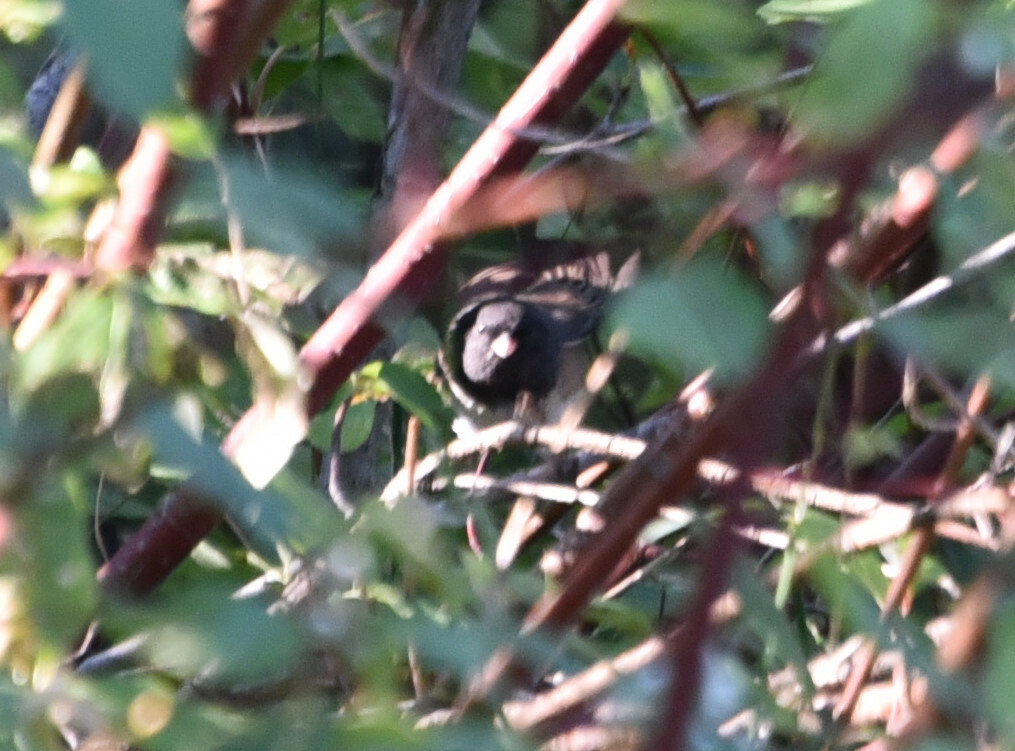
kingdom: Animalia
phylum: Chordata
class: Aves
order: Passeriformes
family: Passerellidae
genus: Junco
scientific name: Junco hyemalis
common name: Dark-eyed junco
